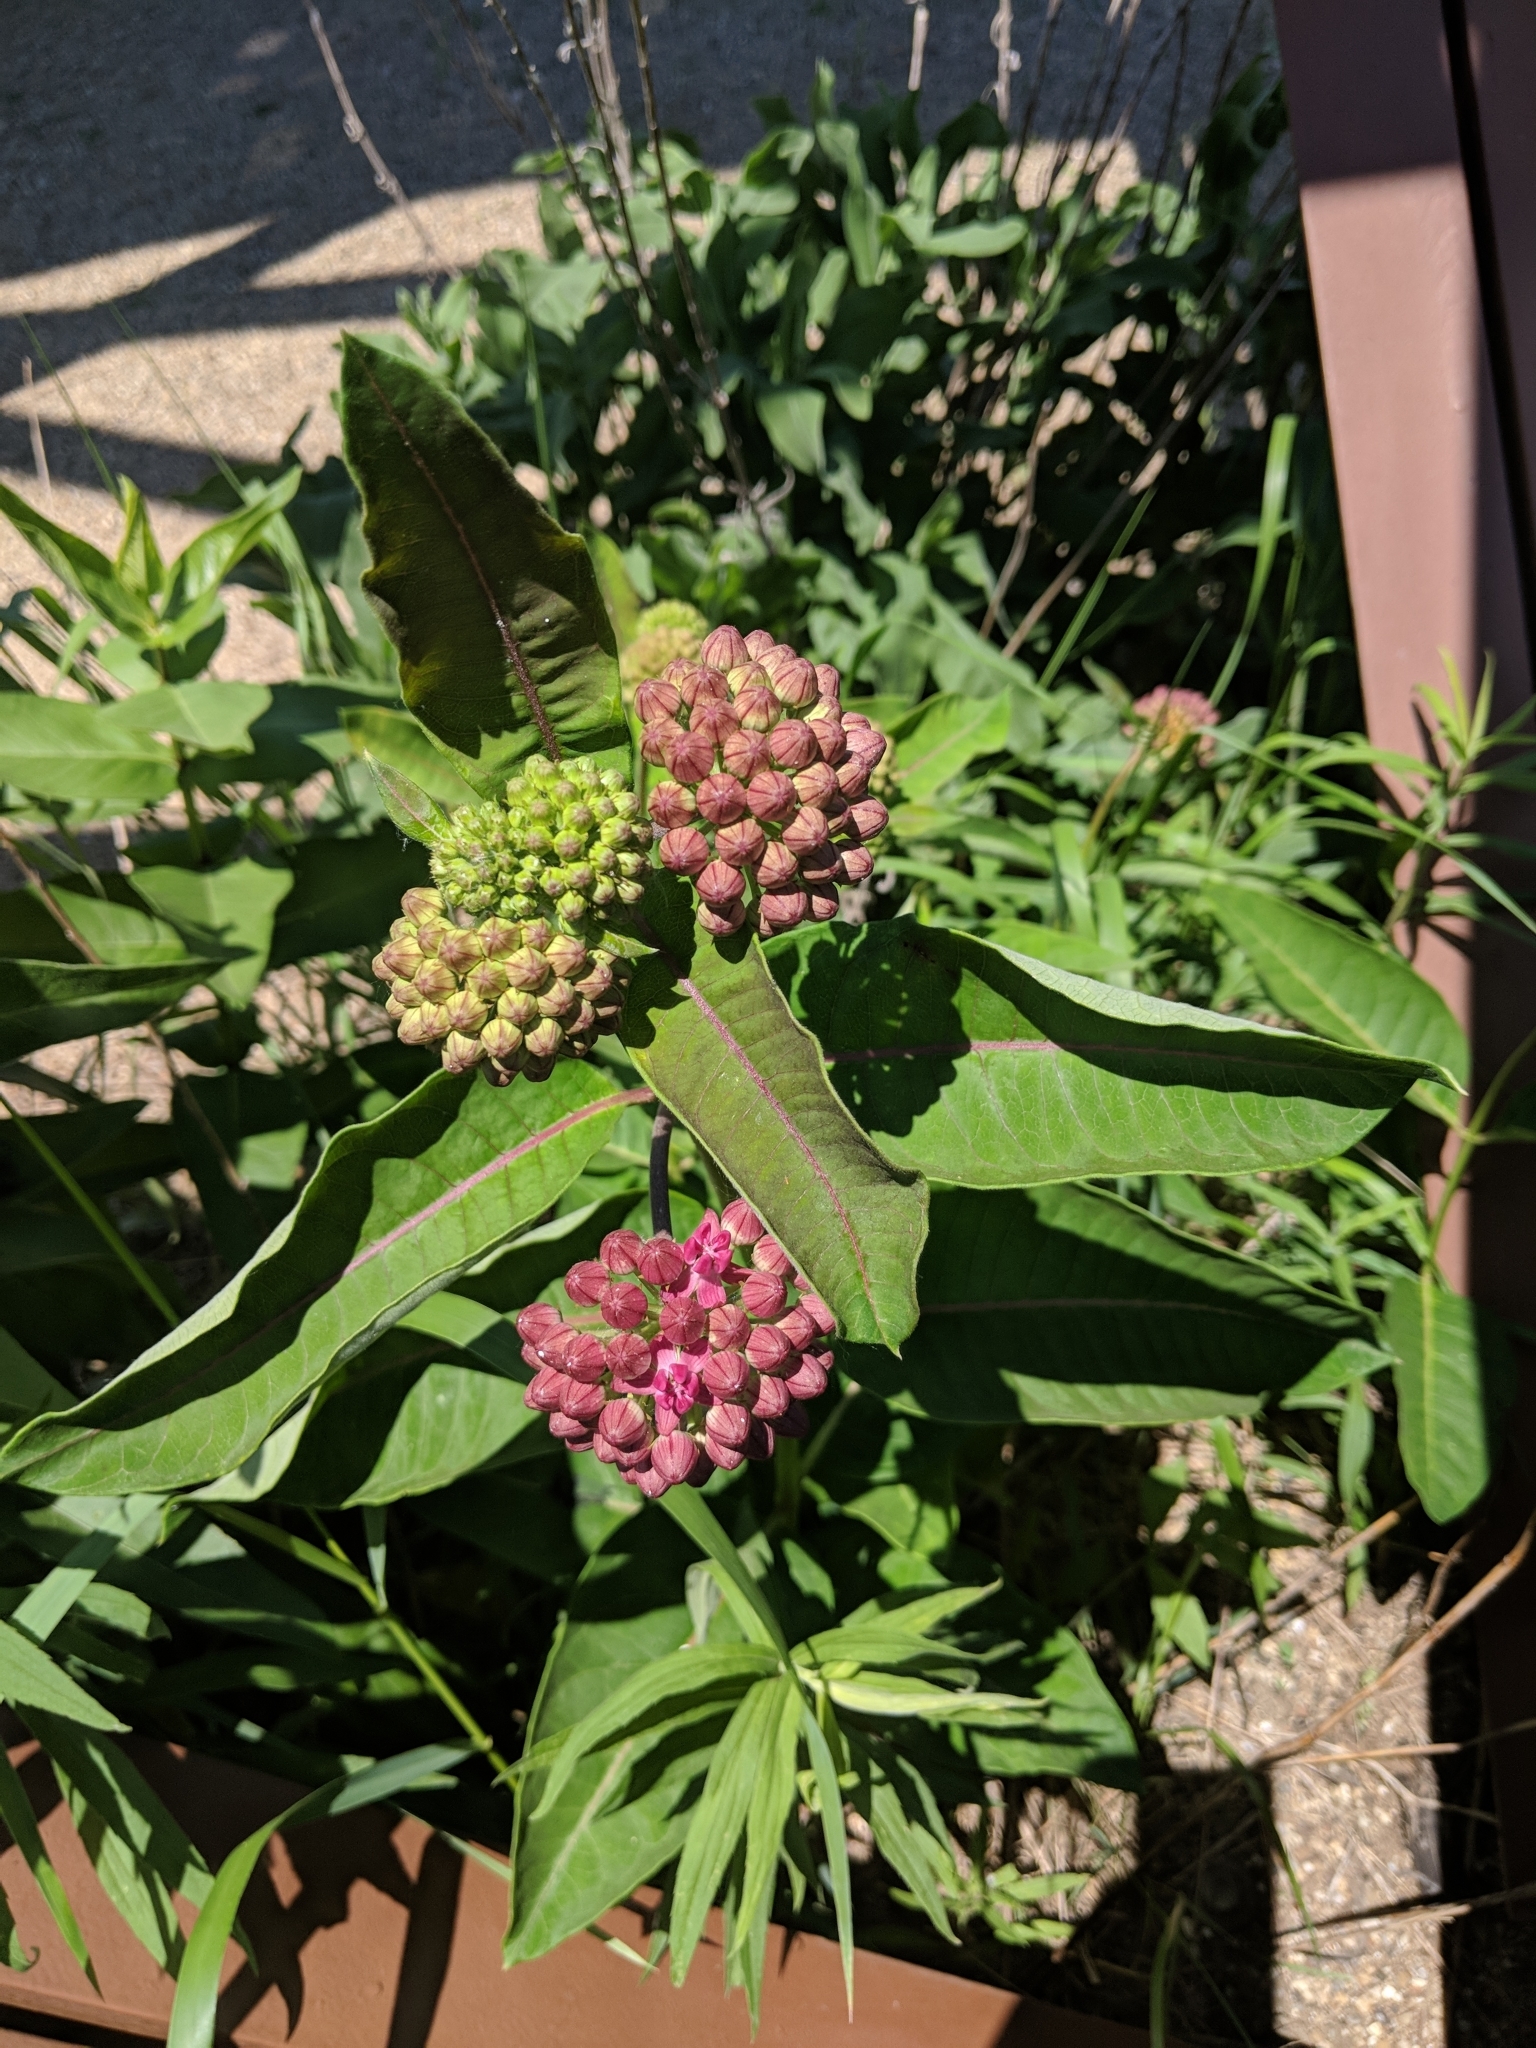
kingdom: Plantae
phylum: Tracheophyta
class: Magnoliopsida
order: Gentianales
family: Apocynaceae
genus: Asclepias
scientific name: Asclepias purpurascens
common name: Purple milkweed
